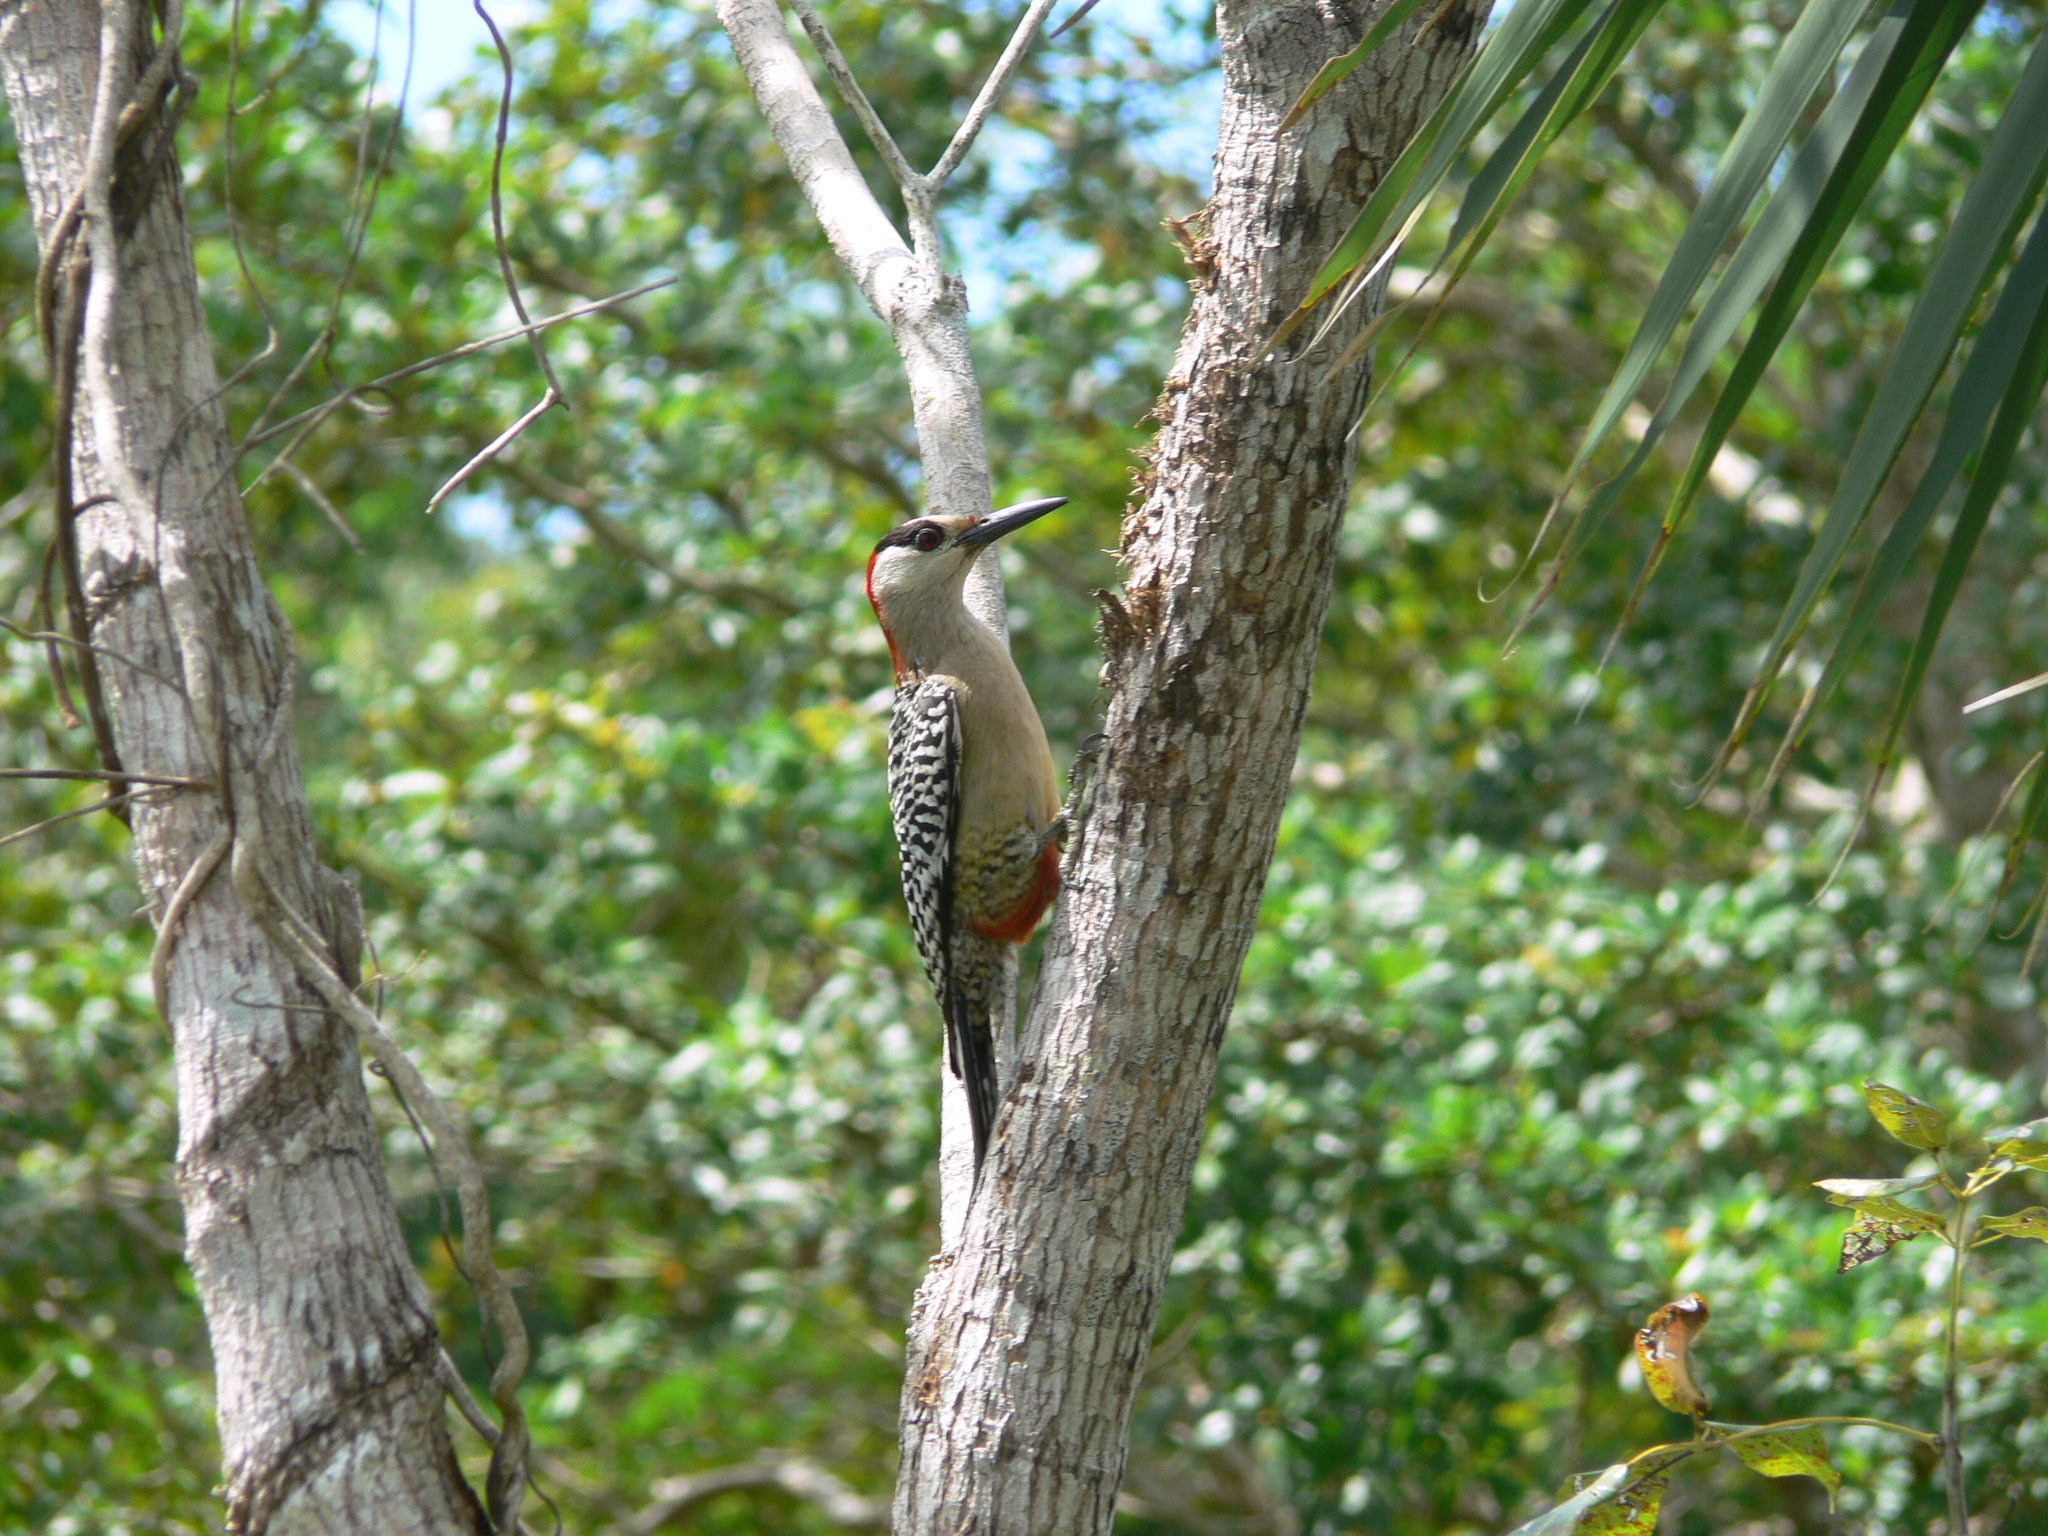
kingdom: Animalia
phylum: Chordata
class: Aves
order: Piciformes
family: Picidae
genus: Melanerpes
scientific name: Melanerpes superciliaris
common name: West indian woodpecker
